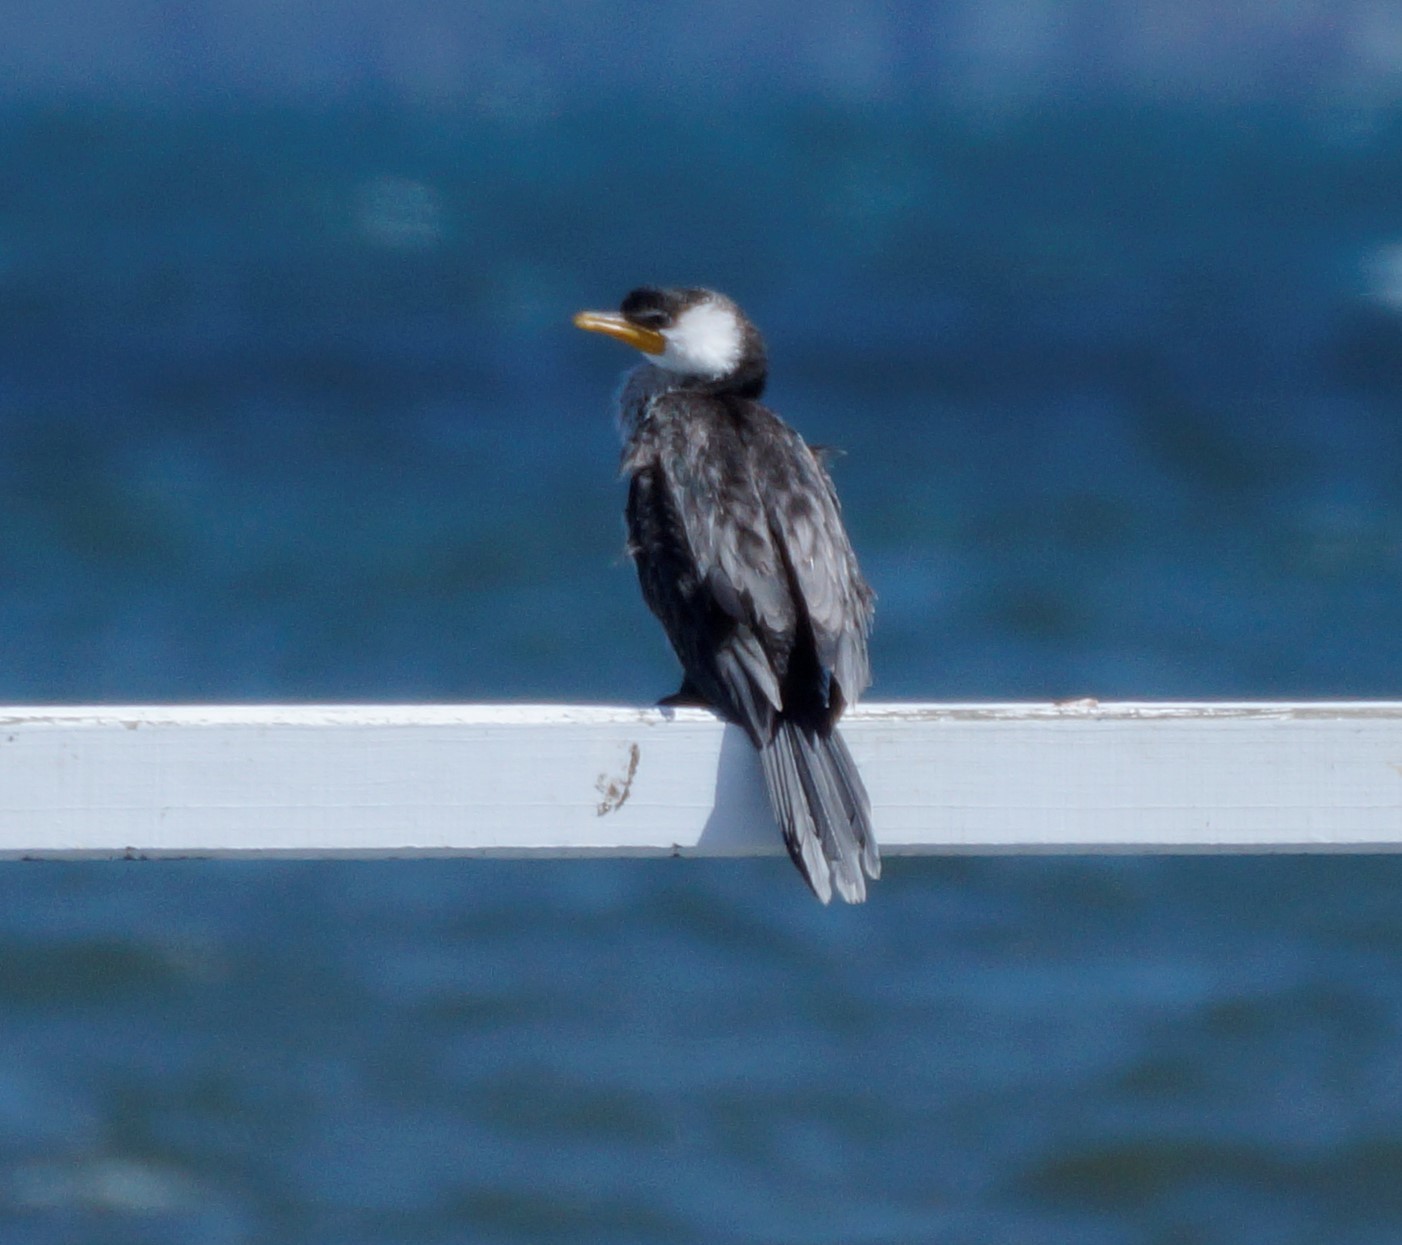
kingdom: Animalia
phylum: Chordata
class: Aves
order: Suliformes
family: Phalacrocoracidae
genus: Microcarbo
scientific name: Microcarbo melanoleucos
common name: Little pied cormorant
